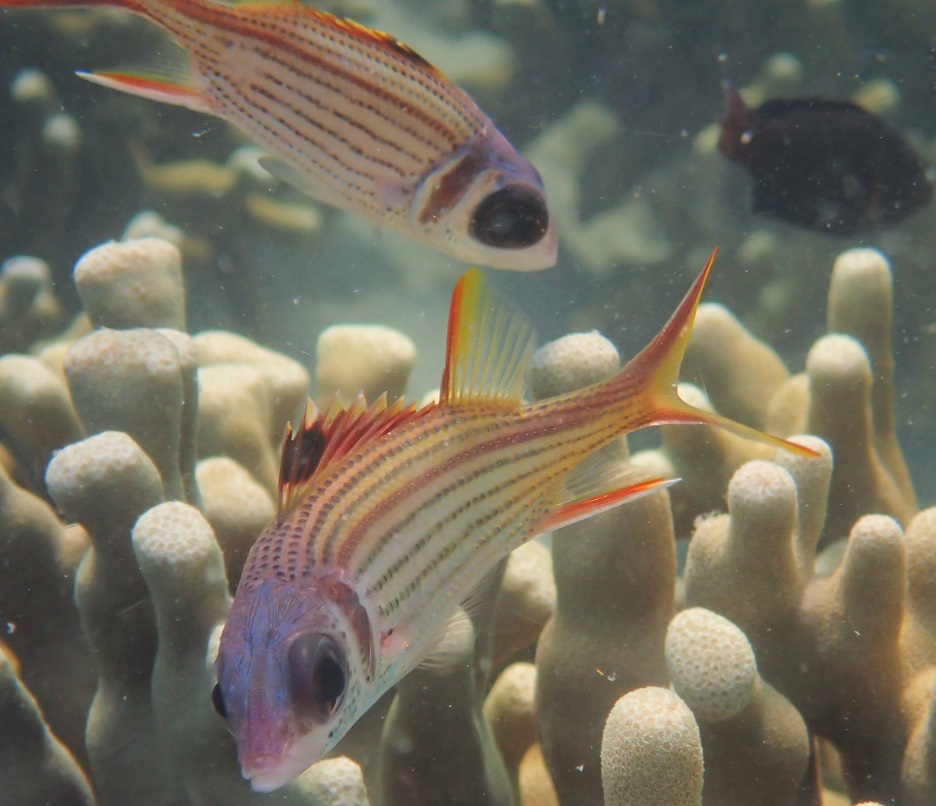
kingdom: Animalia
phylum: Chordata
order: Beryciformes
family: Holocentridae
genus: Neoniphon
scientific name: Neoniphon sammara
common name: Sammara squirrelfish
